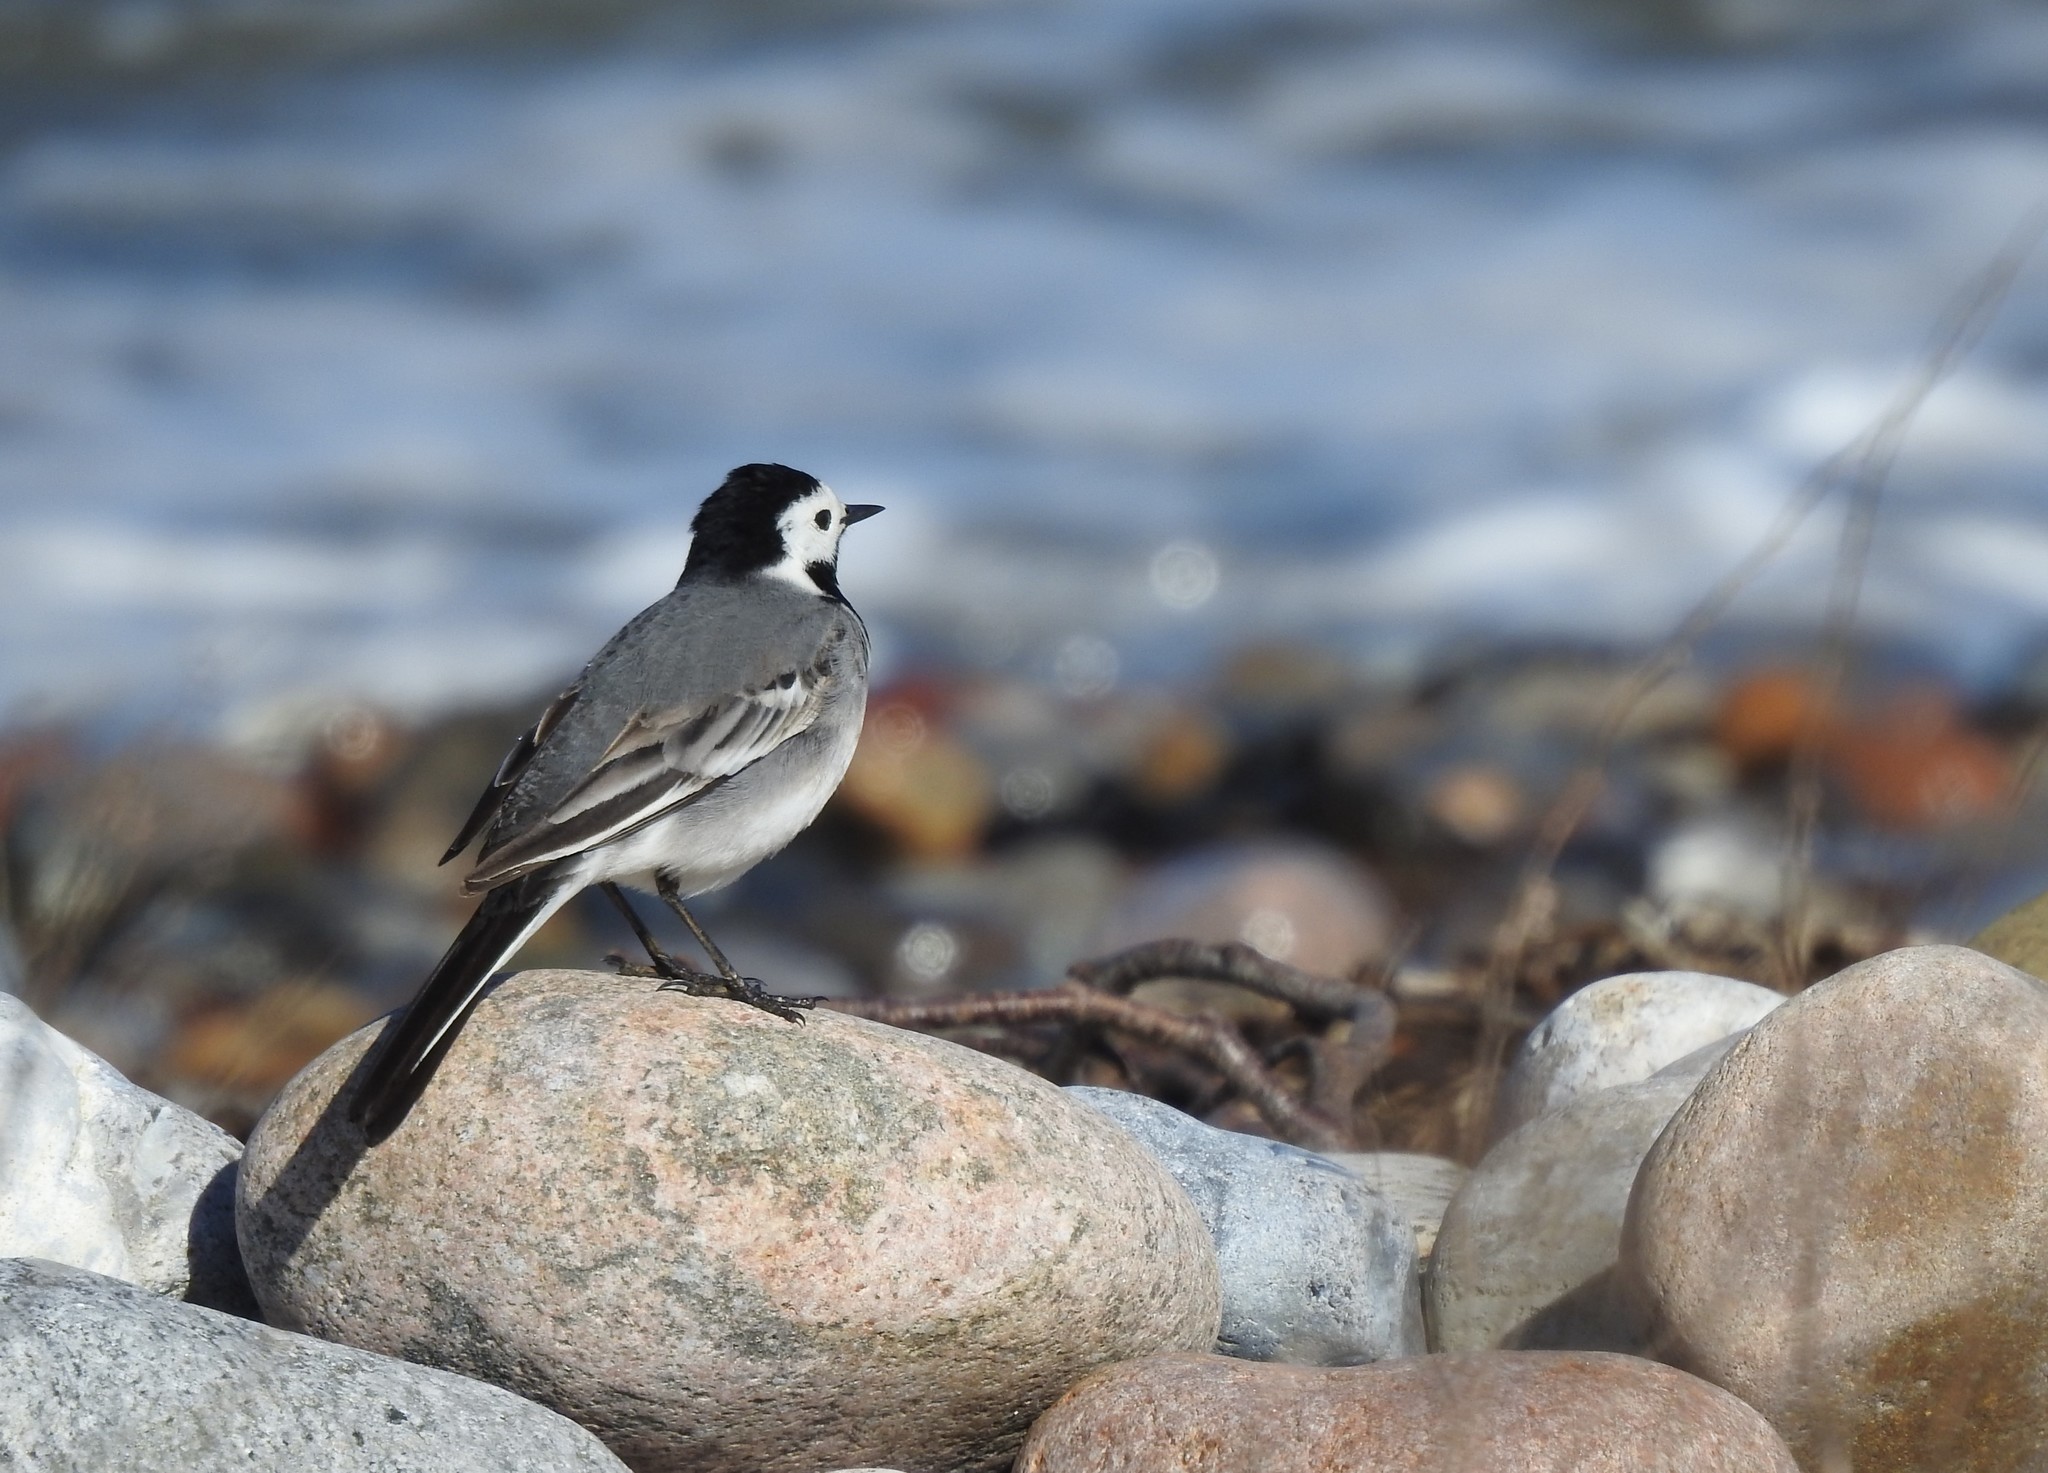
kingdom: Animalia
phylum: Chordata
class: Aves
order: Passeriformes
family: Motacillidae
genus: Motacilla
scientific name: Motacilla alba
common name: White wagtail
